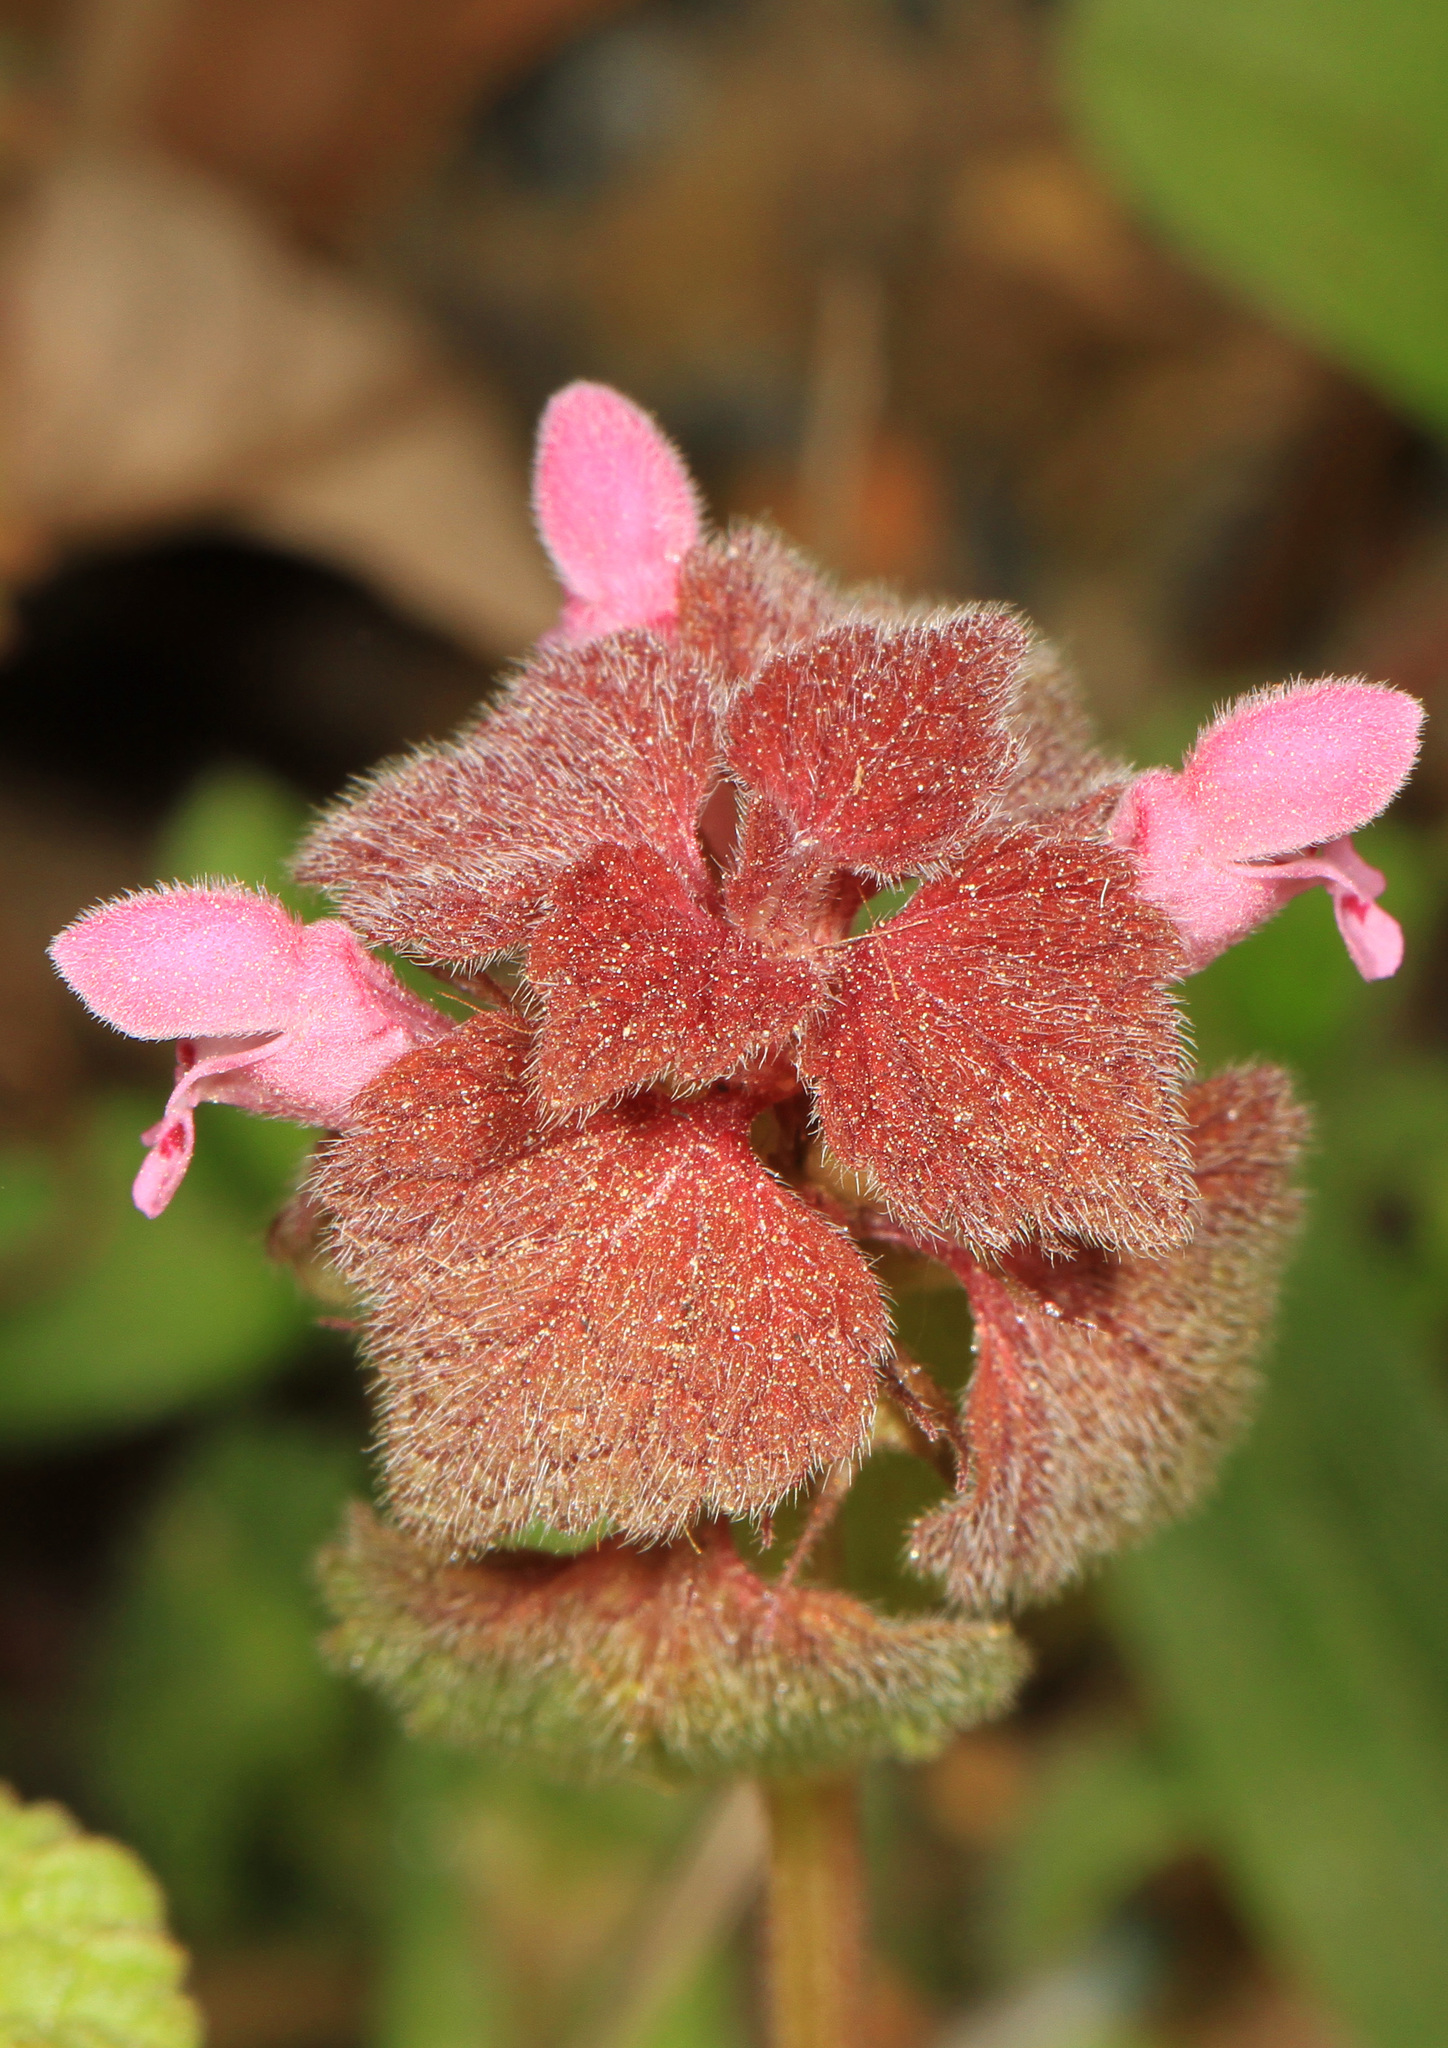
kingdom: Plantae
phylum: Tracheophyta
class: Magnoliopsida
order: Lamiales
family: Lamiaceae
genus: Lamium
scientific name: Lamium purpureum
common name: Red dead-nettle
